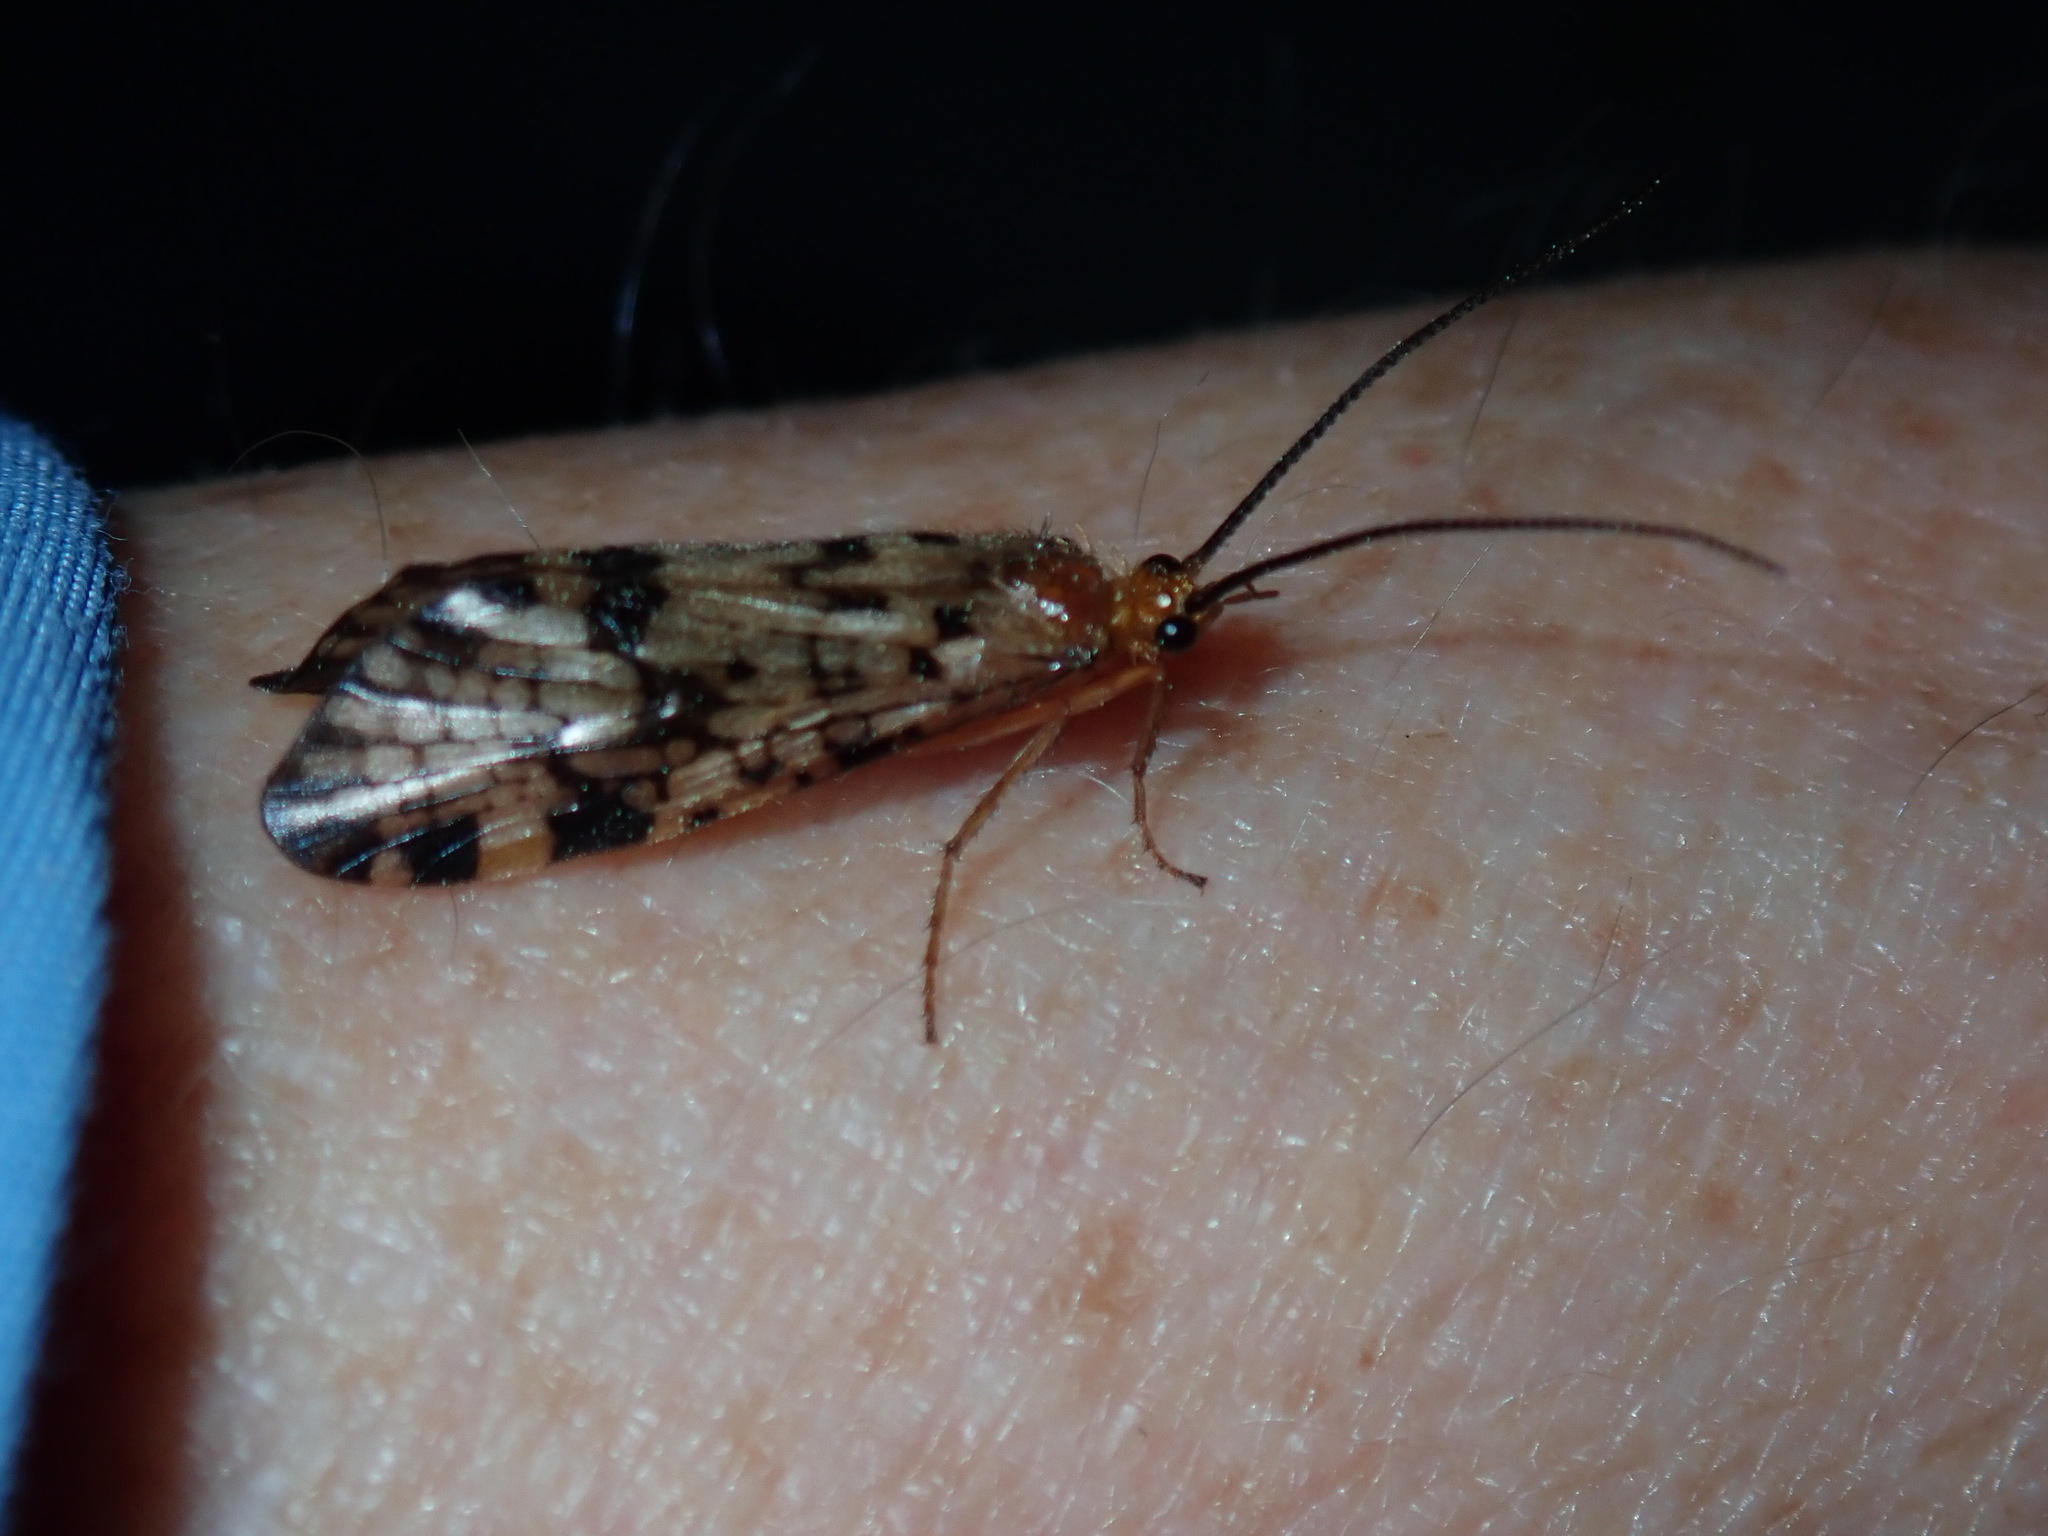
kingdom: Animalia
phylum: Arthropoda
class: Insecta
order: Trichoptera
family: Phryganeidae
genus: Banksiola
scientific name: Banksiola dossuaria
